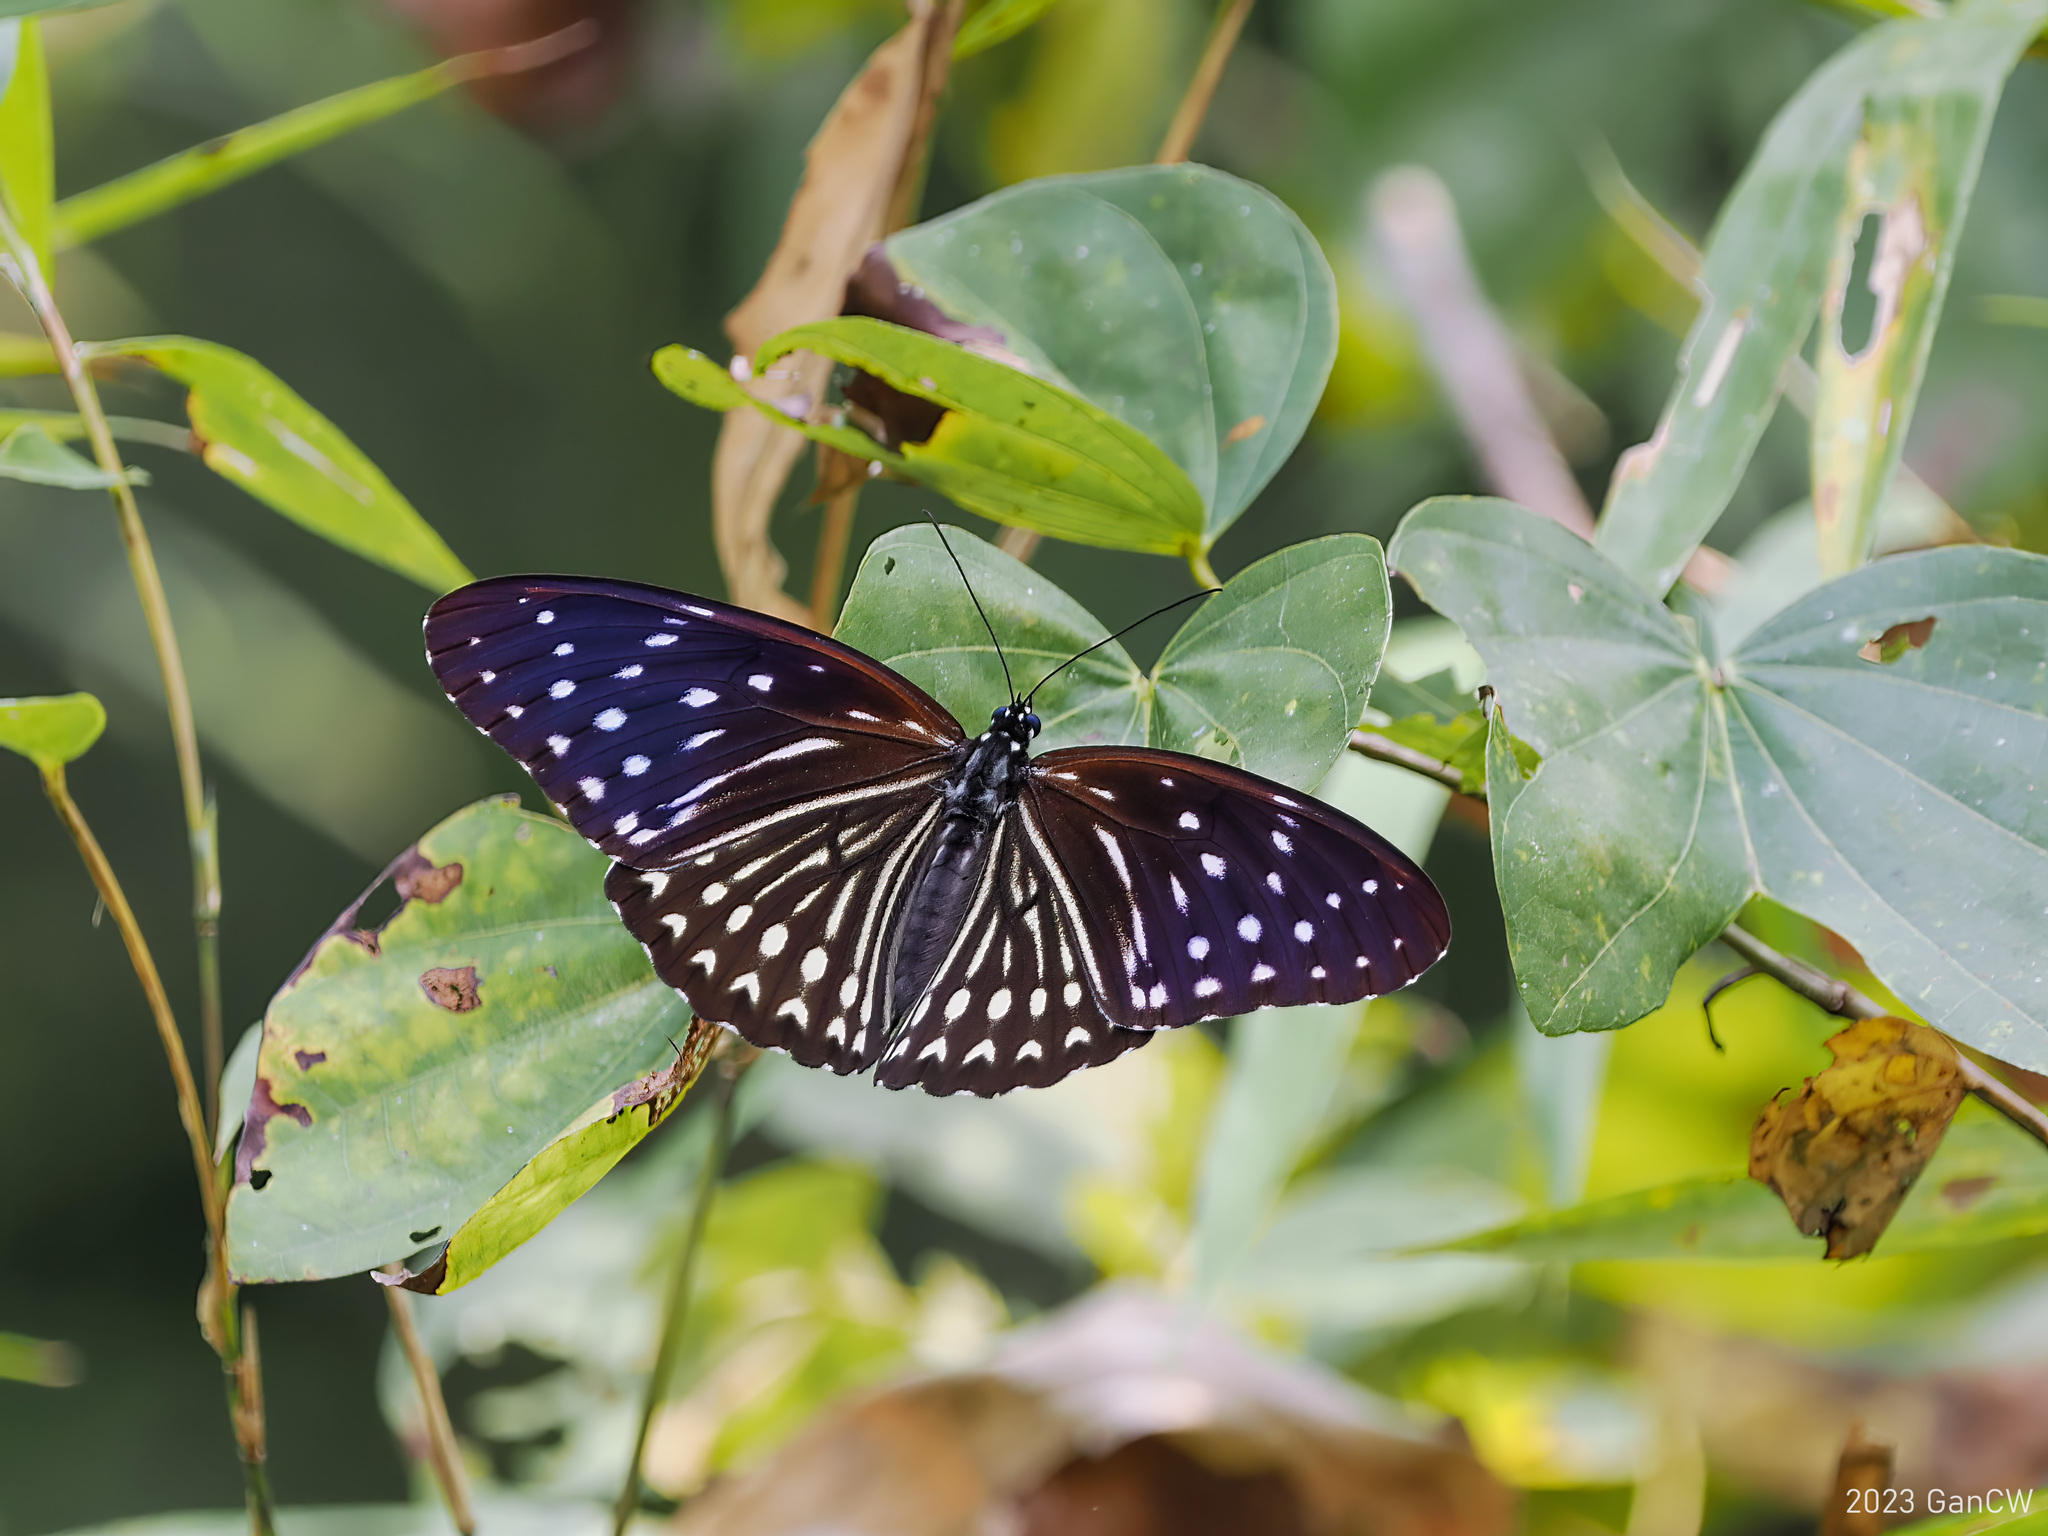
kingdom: Animalia
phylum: Arthropoda
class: Insecta
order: Lepidoptera
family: Nymphalidae
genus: Penthema
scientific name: Penthema darlisa
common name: Three-coloured kaiser
